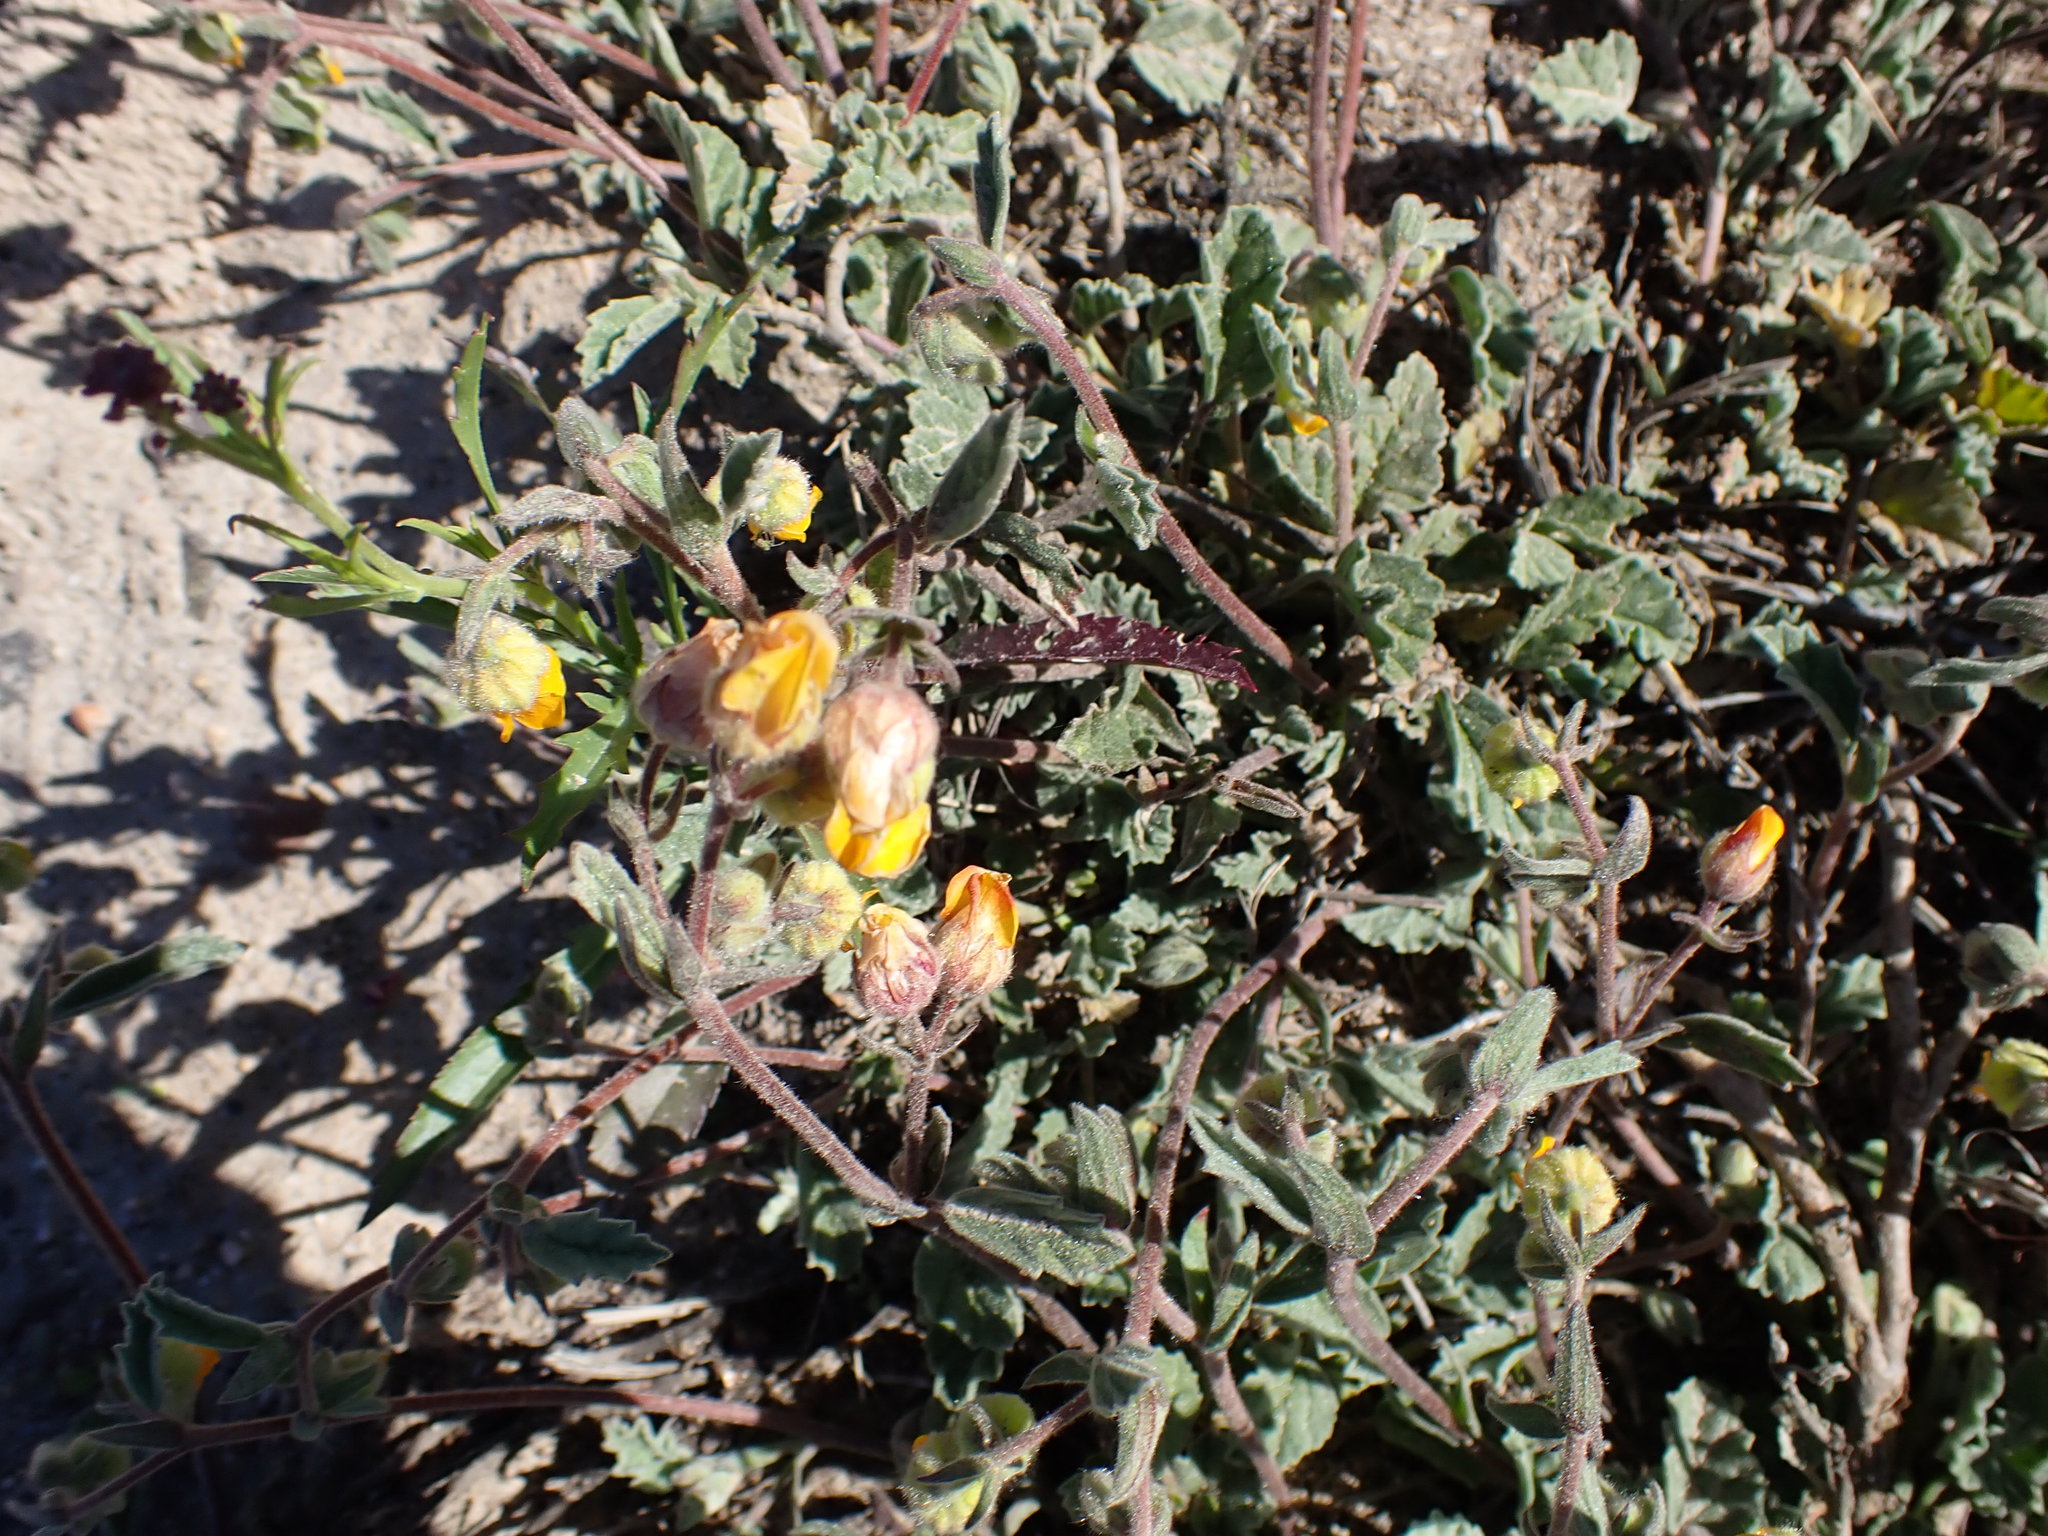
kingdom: Plantae
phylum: Tracheophyta
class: Magnoliopsida
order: Malvales
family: Malvaceae
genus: Hermannia
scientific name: Hermannia althaeifolia
